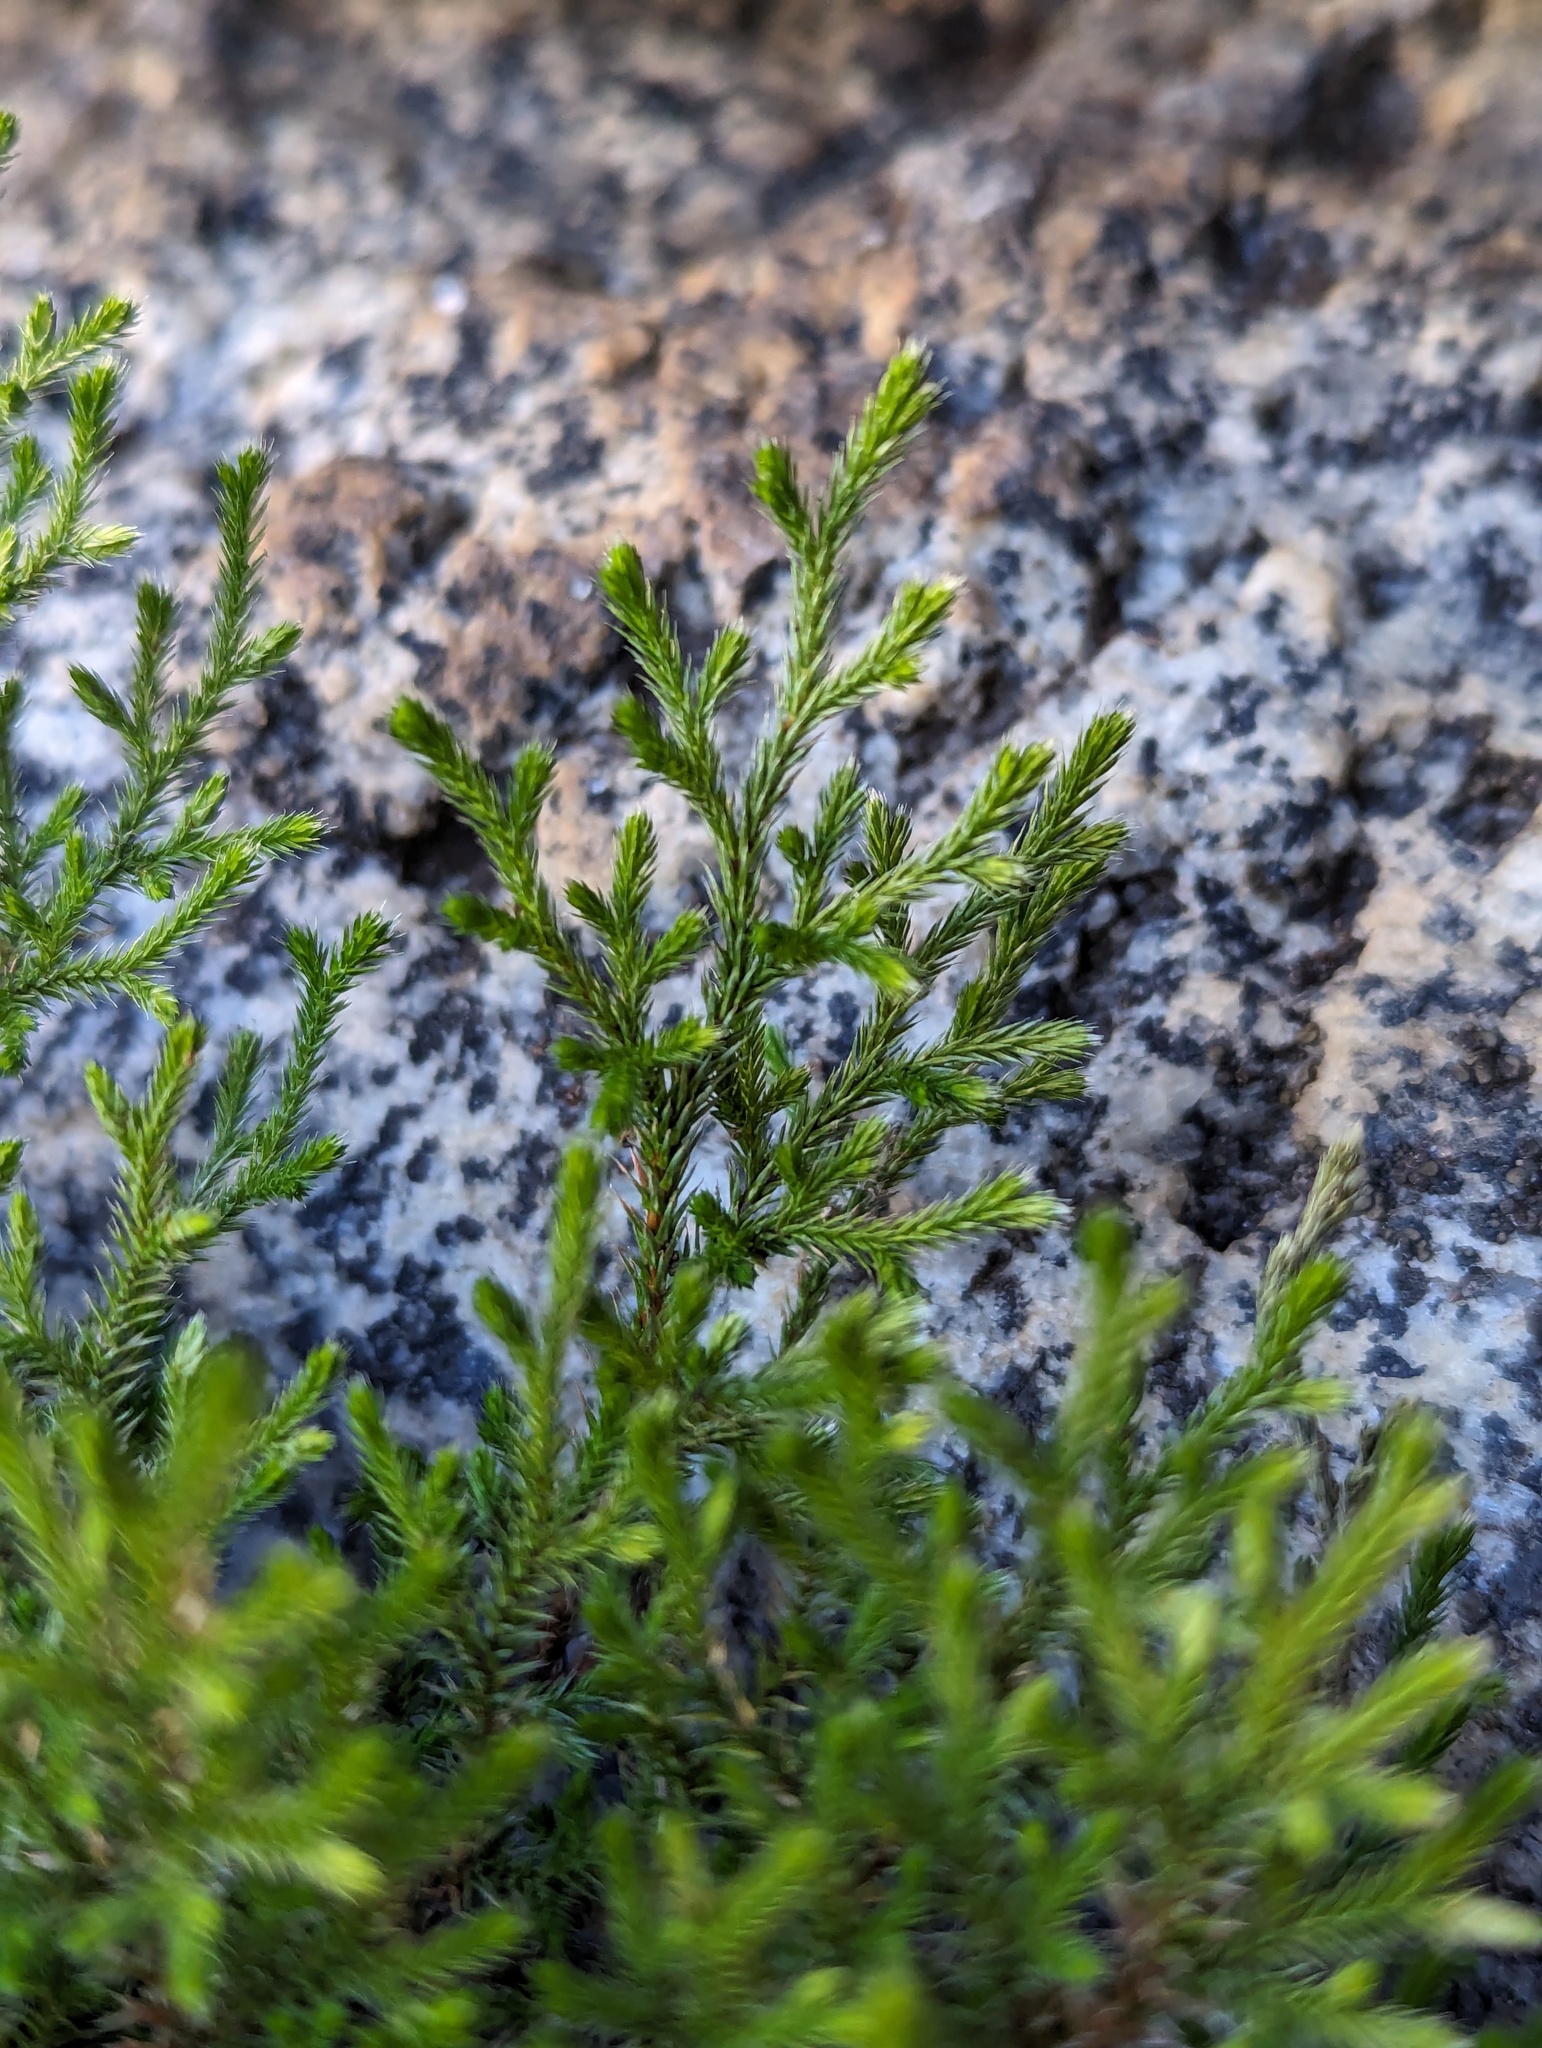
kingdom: Plantae
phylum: Tracheophyta
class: Lycopodiopsida
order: Selaginellales
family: Selaginellaceae
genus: Selaginella
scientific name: Selaginella bigelovii
